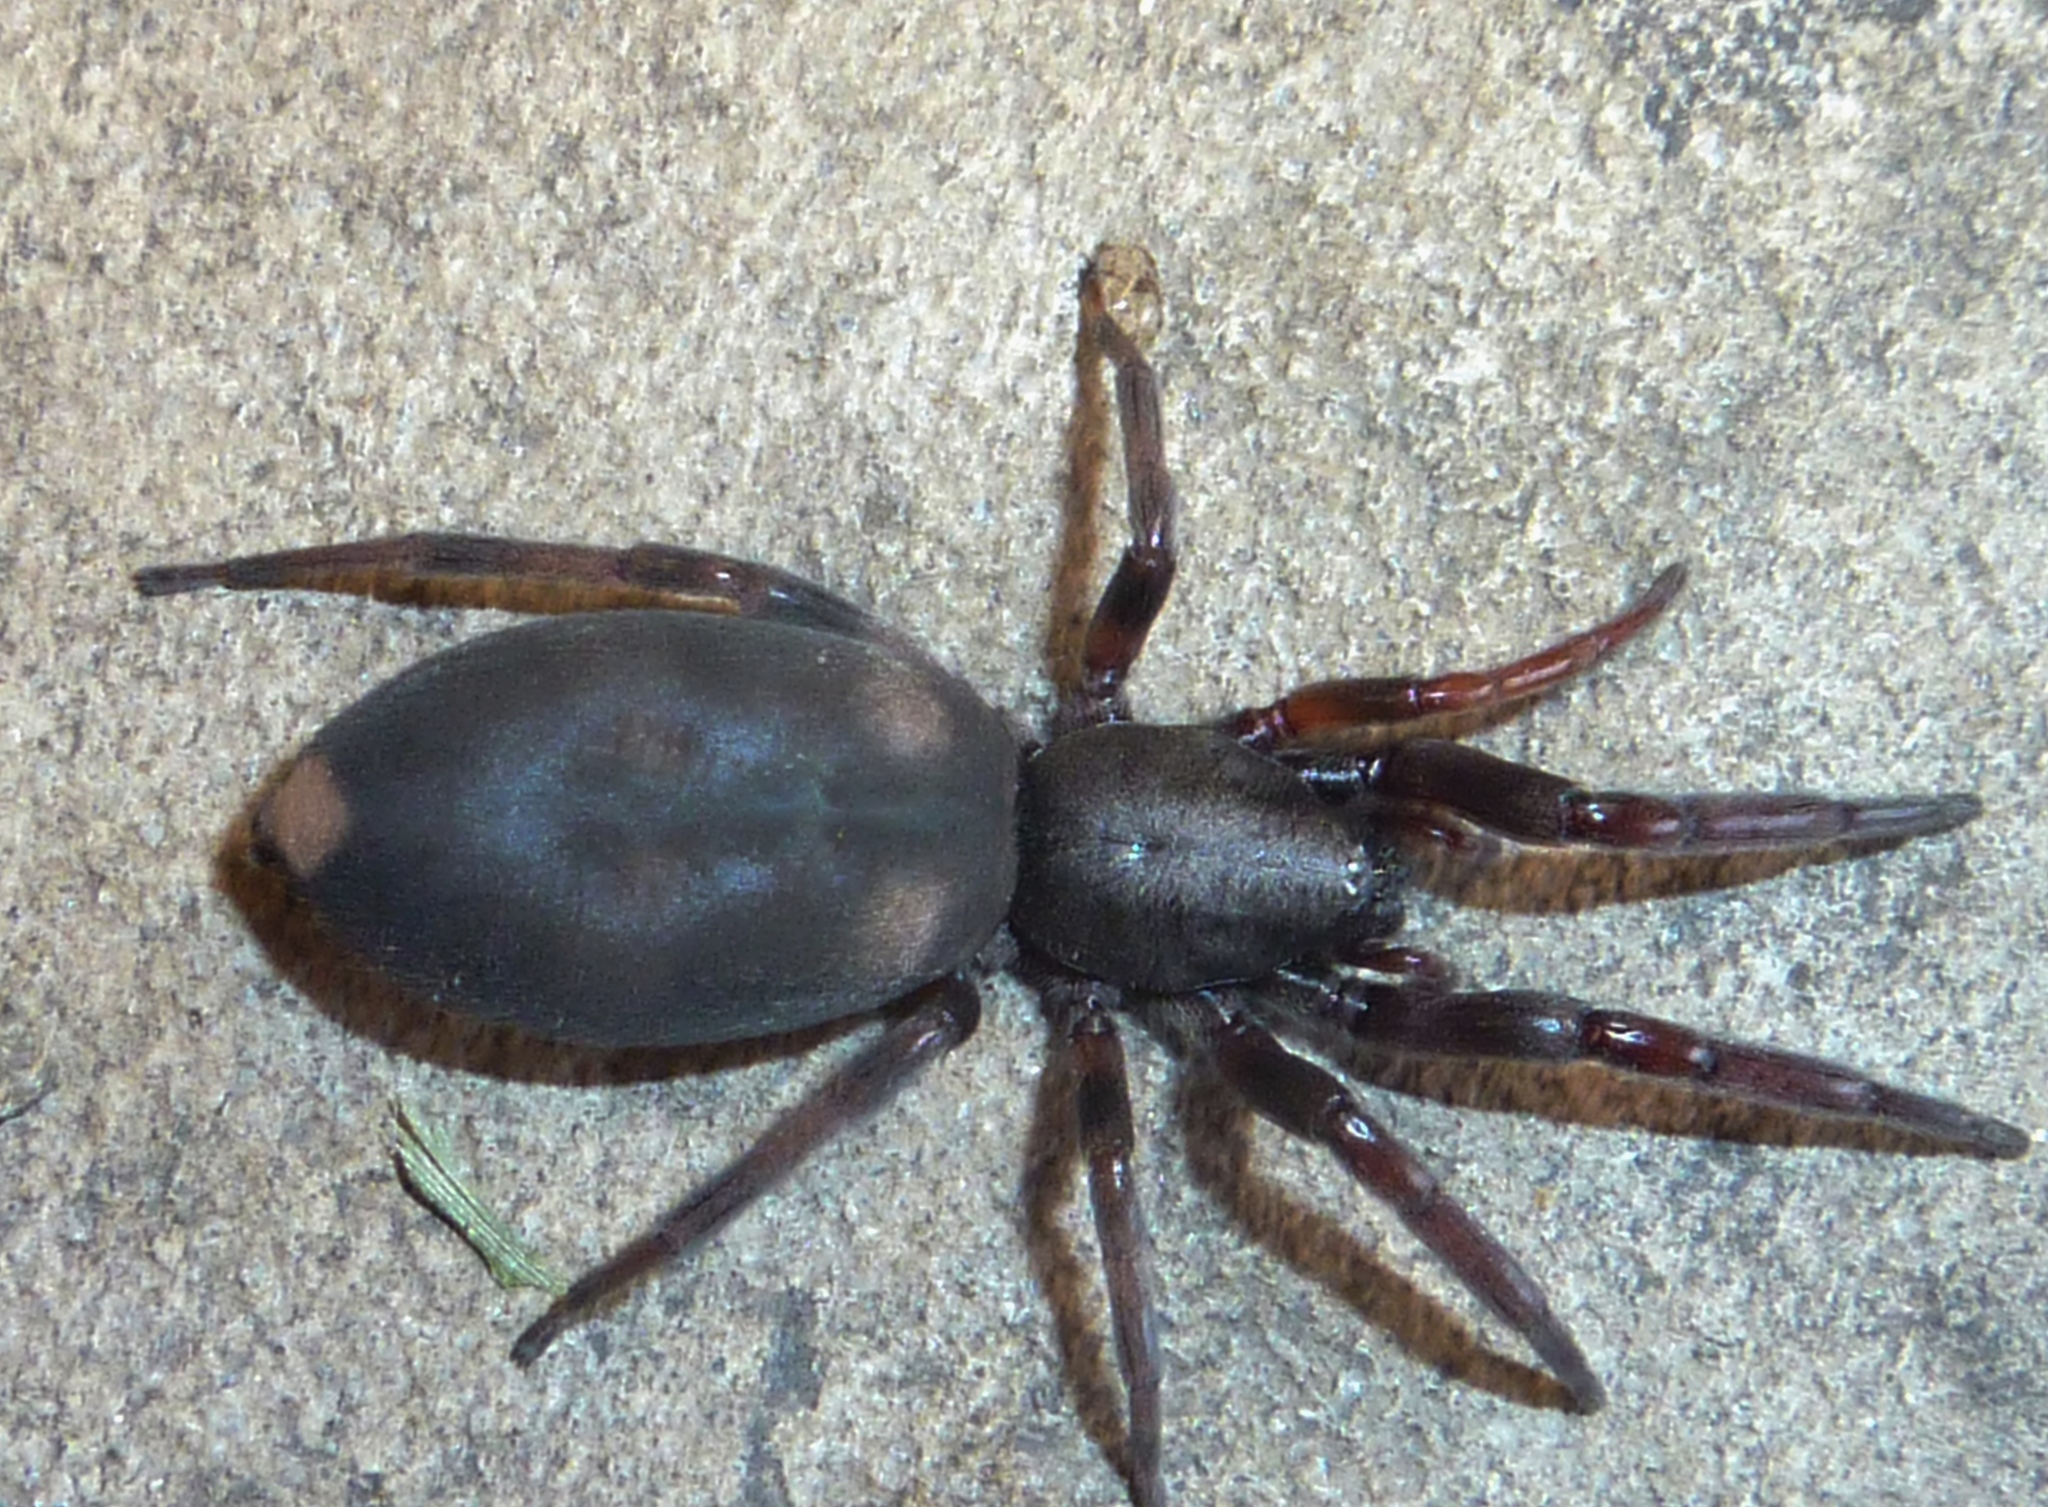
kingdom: Animalia
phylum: Arthropoda
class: Arachnida
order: Araneae
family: Lamponidae
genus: Lampona
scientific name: Lampona cylindrata
